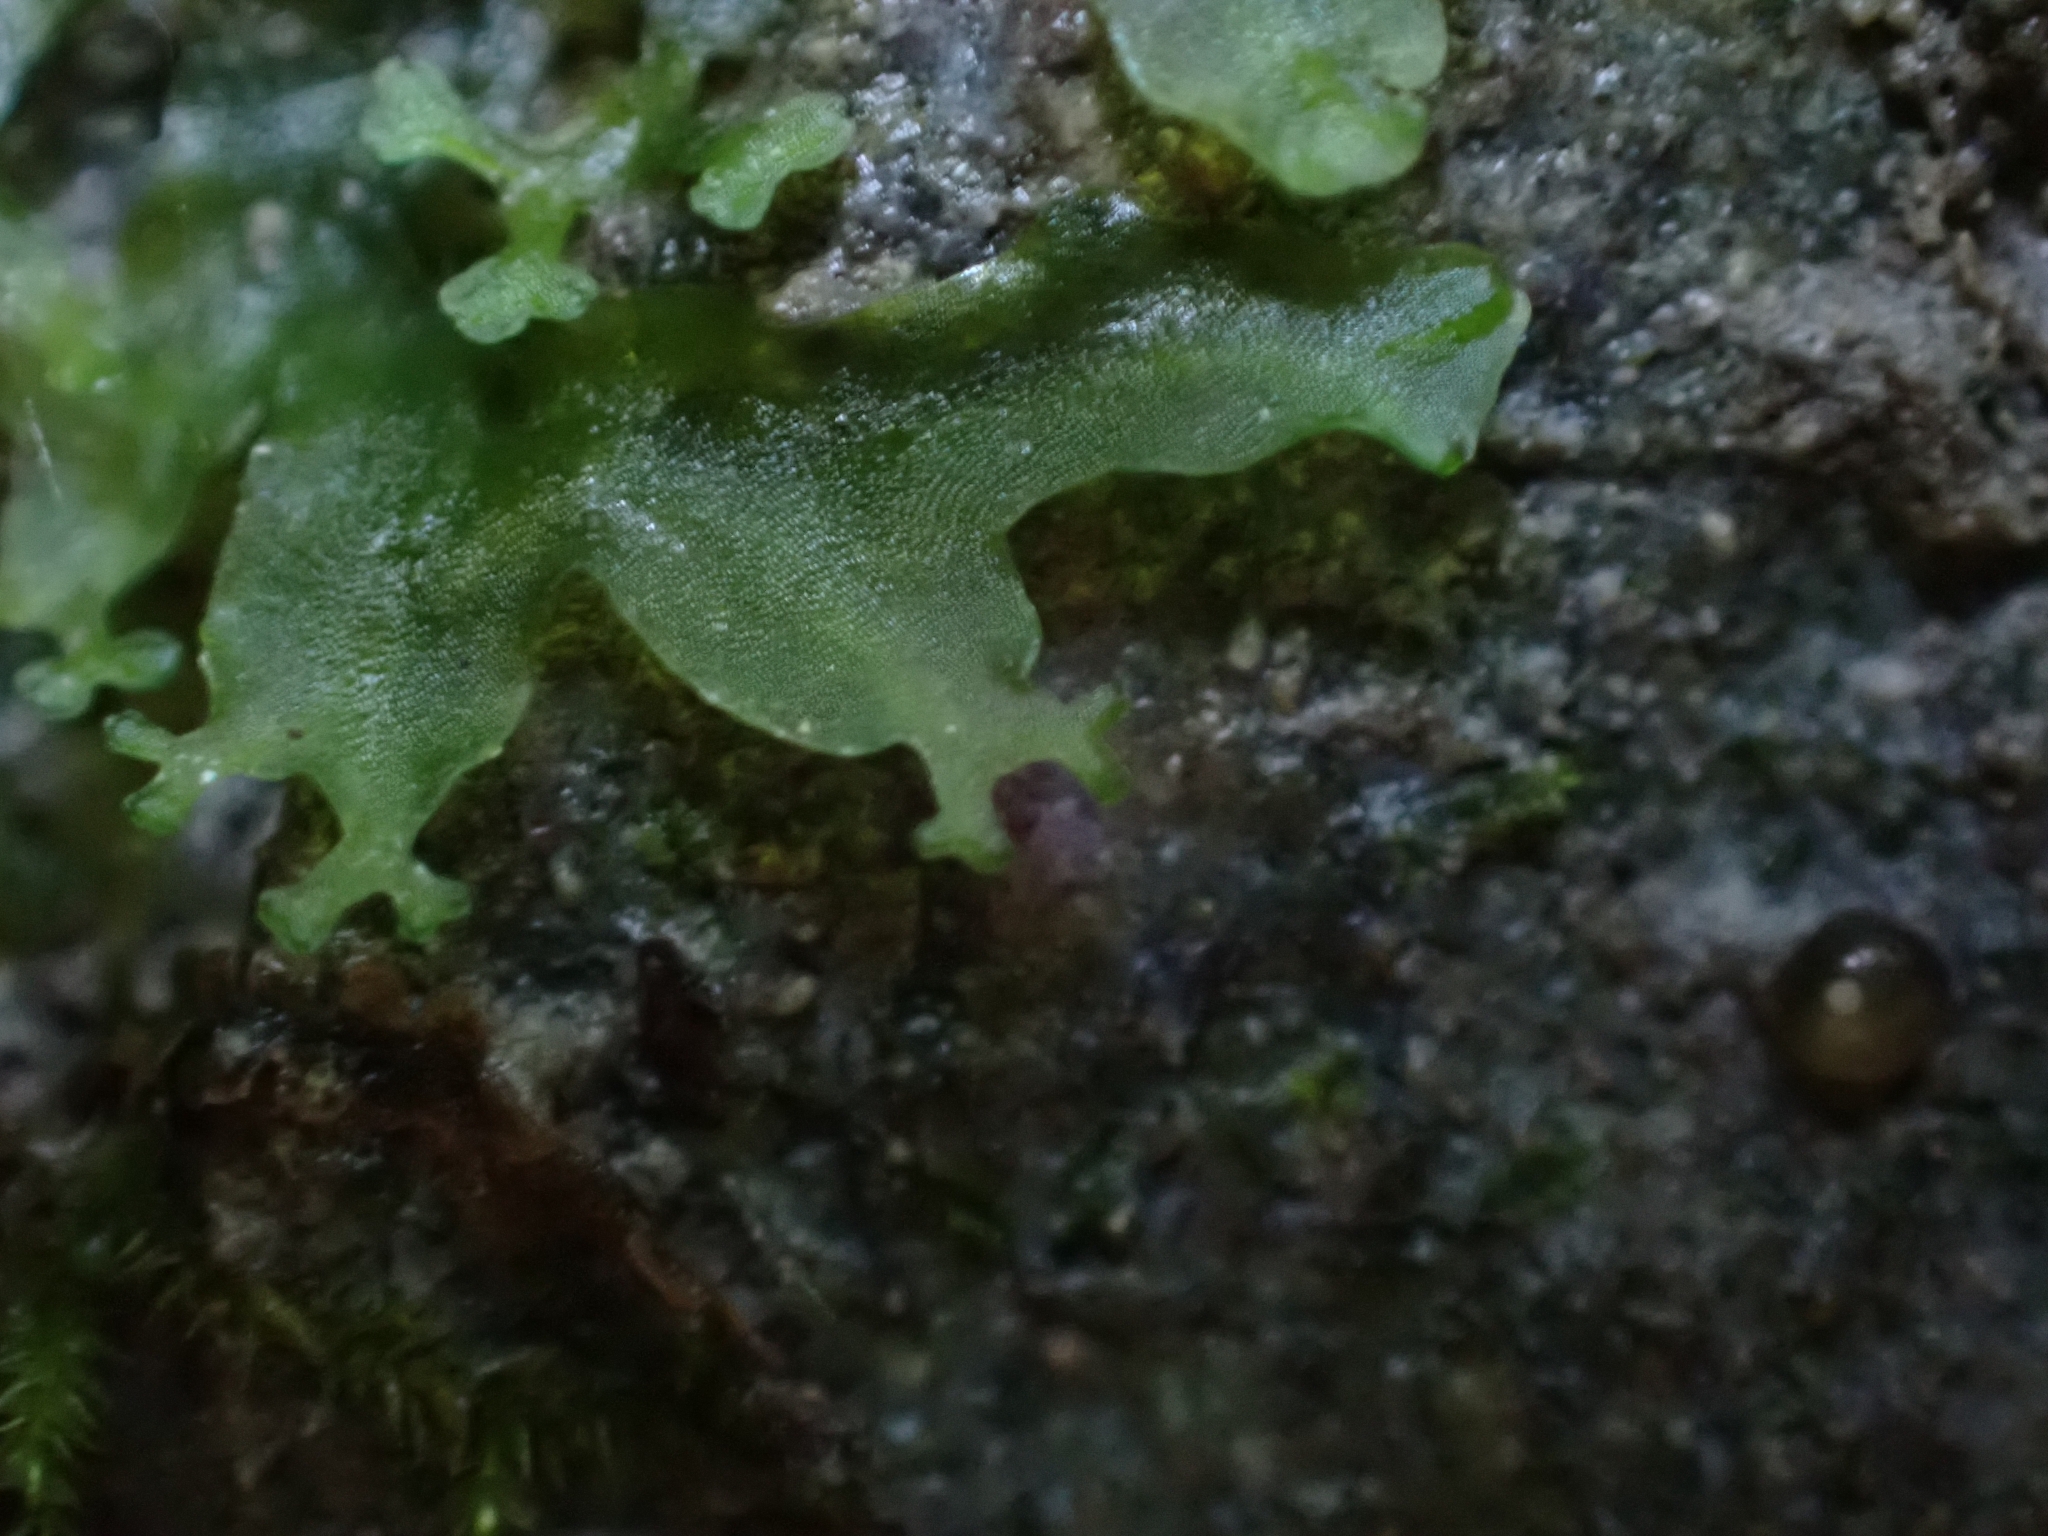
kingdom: Plantae
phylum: Marchantiophyta
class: Jungermanniopsida
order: Pelliales
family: Pelliaceae
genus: Apopellia
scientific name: Apopellia endiviifolia
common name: Endive pellia
